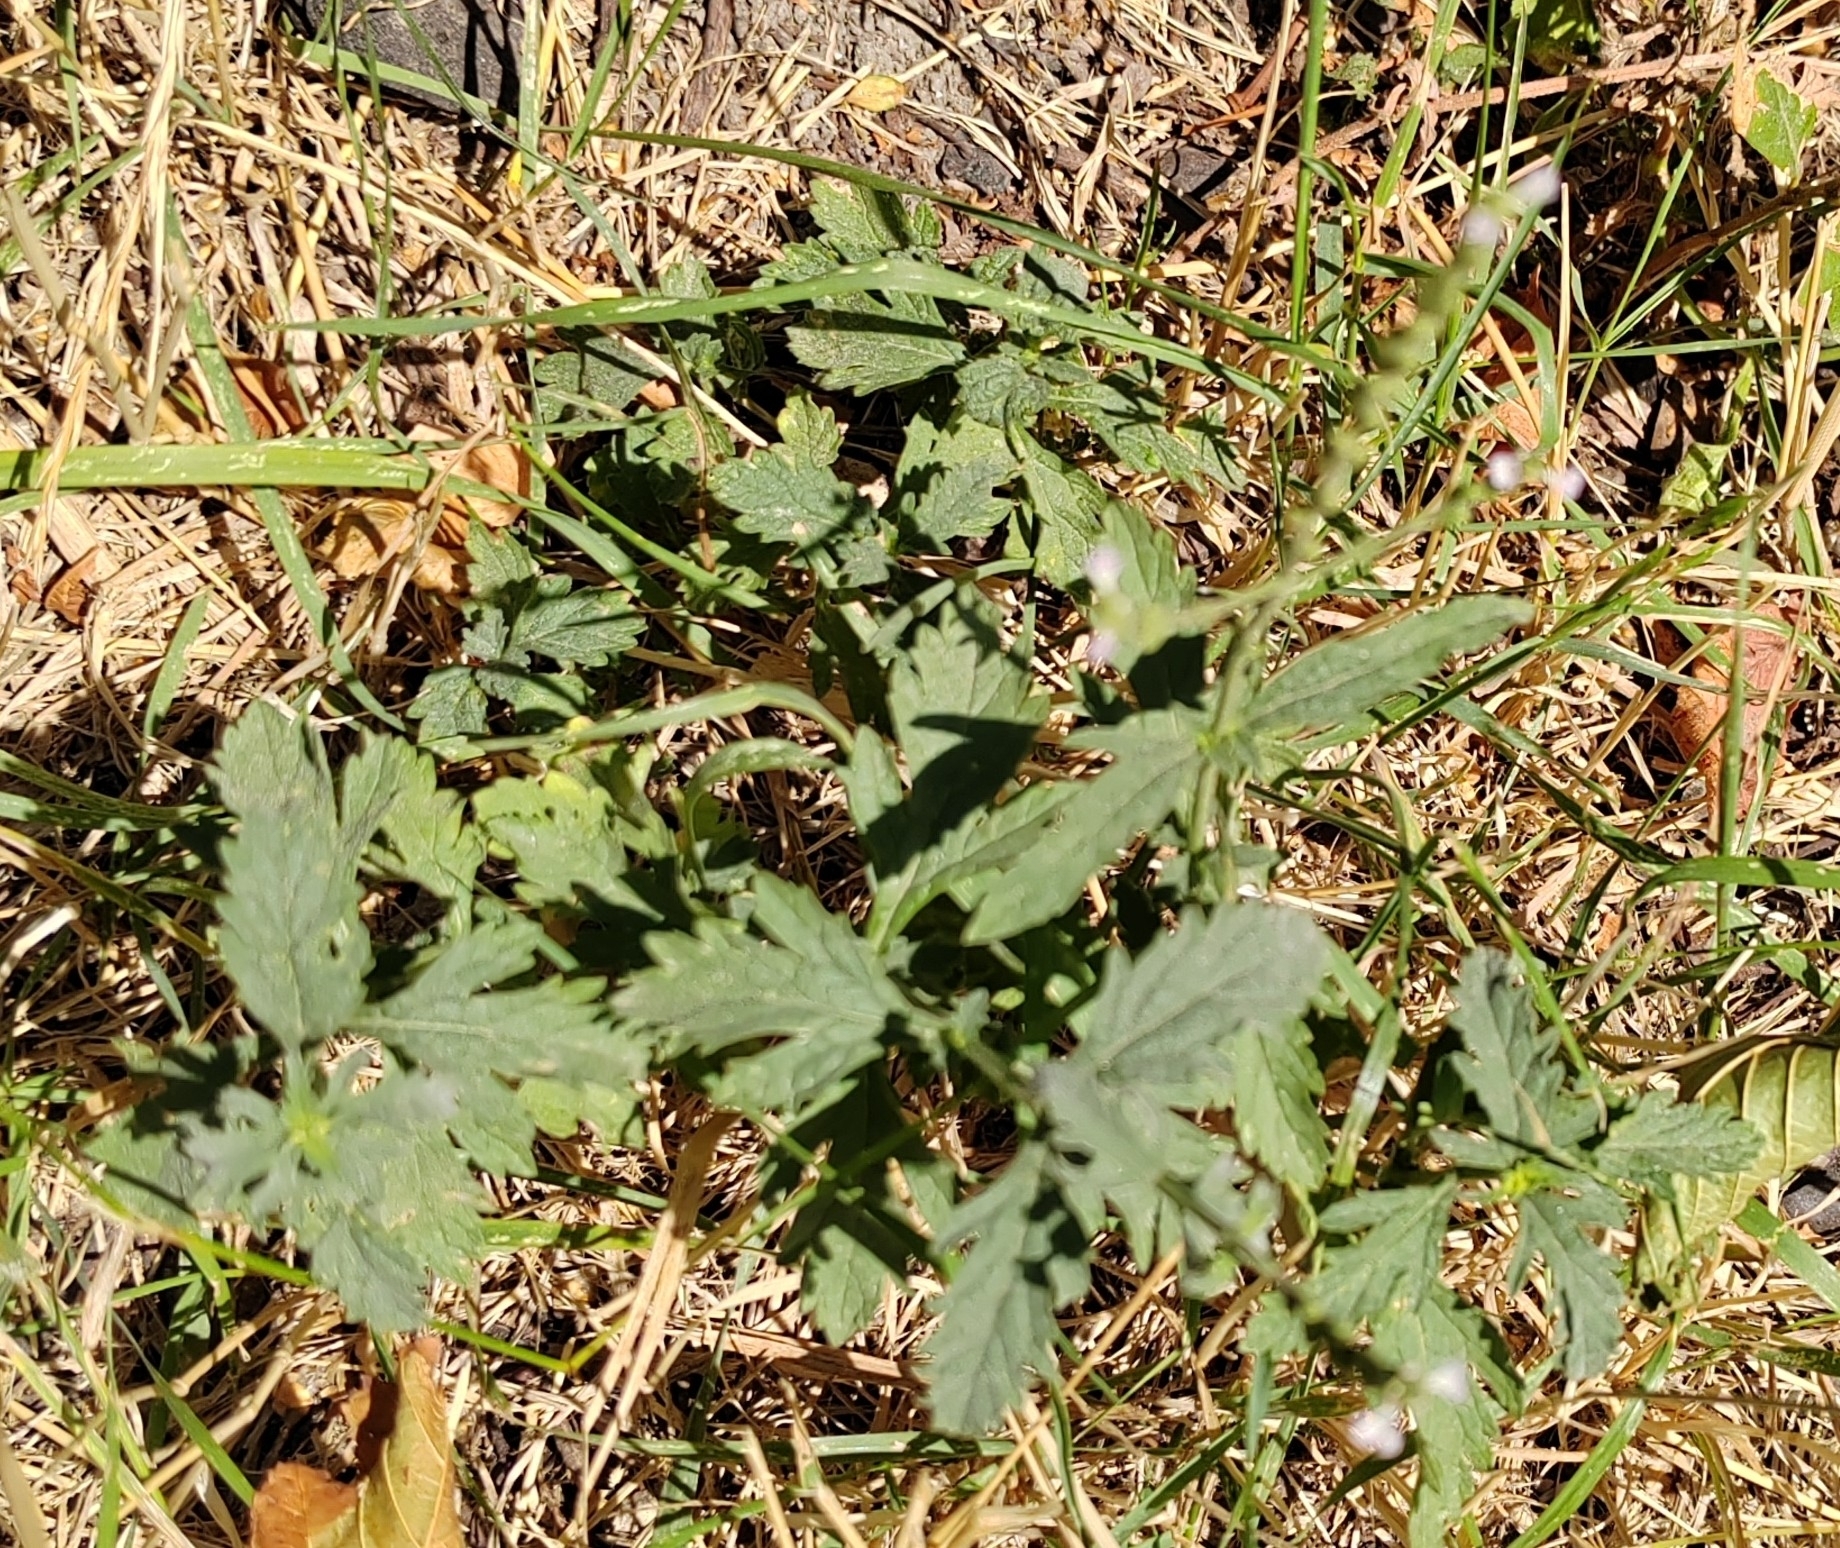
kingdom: Plantae
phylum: Tracheophyta
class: Magnoliopsida
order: Lamiales
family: Verbenaceae
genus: Verbena
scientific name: Verbena officinalis
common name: Vervain
